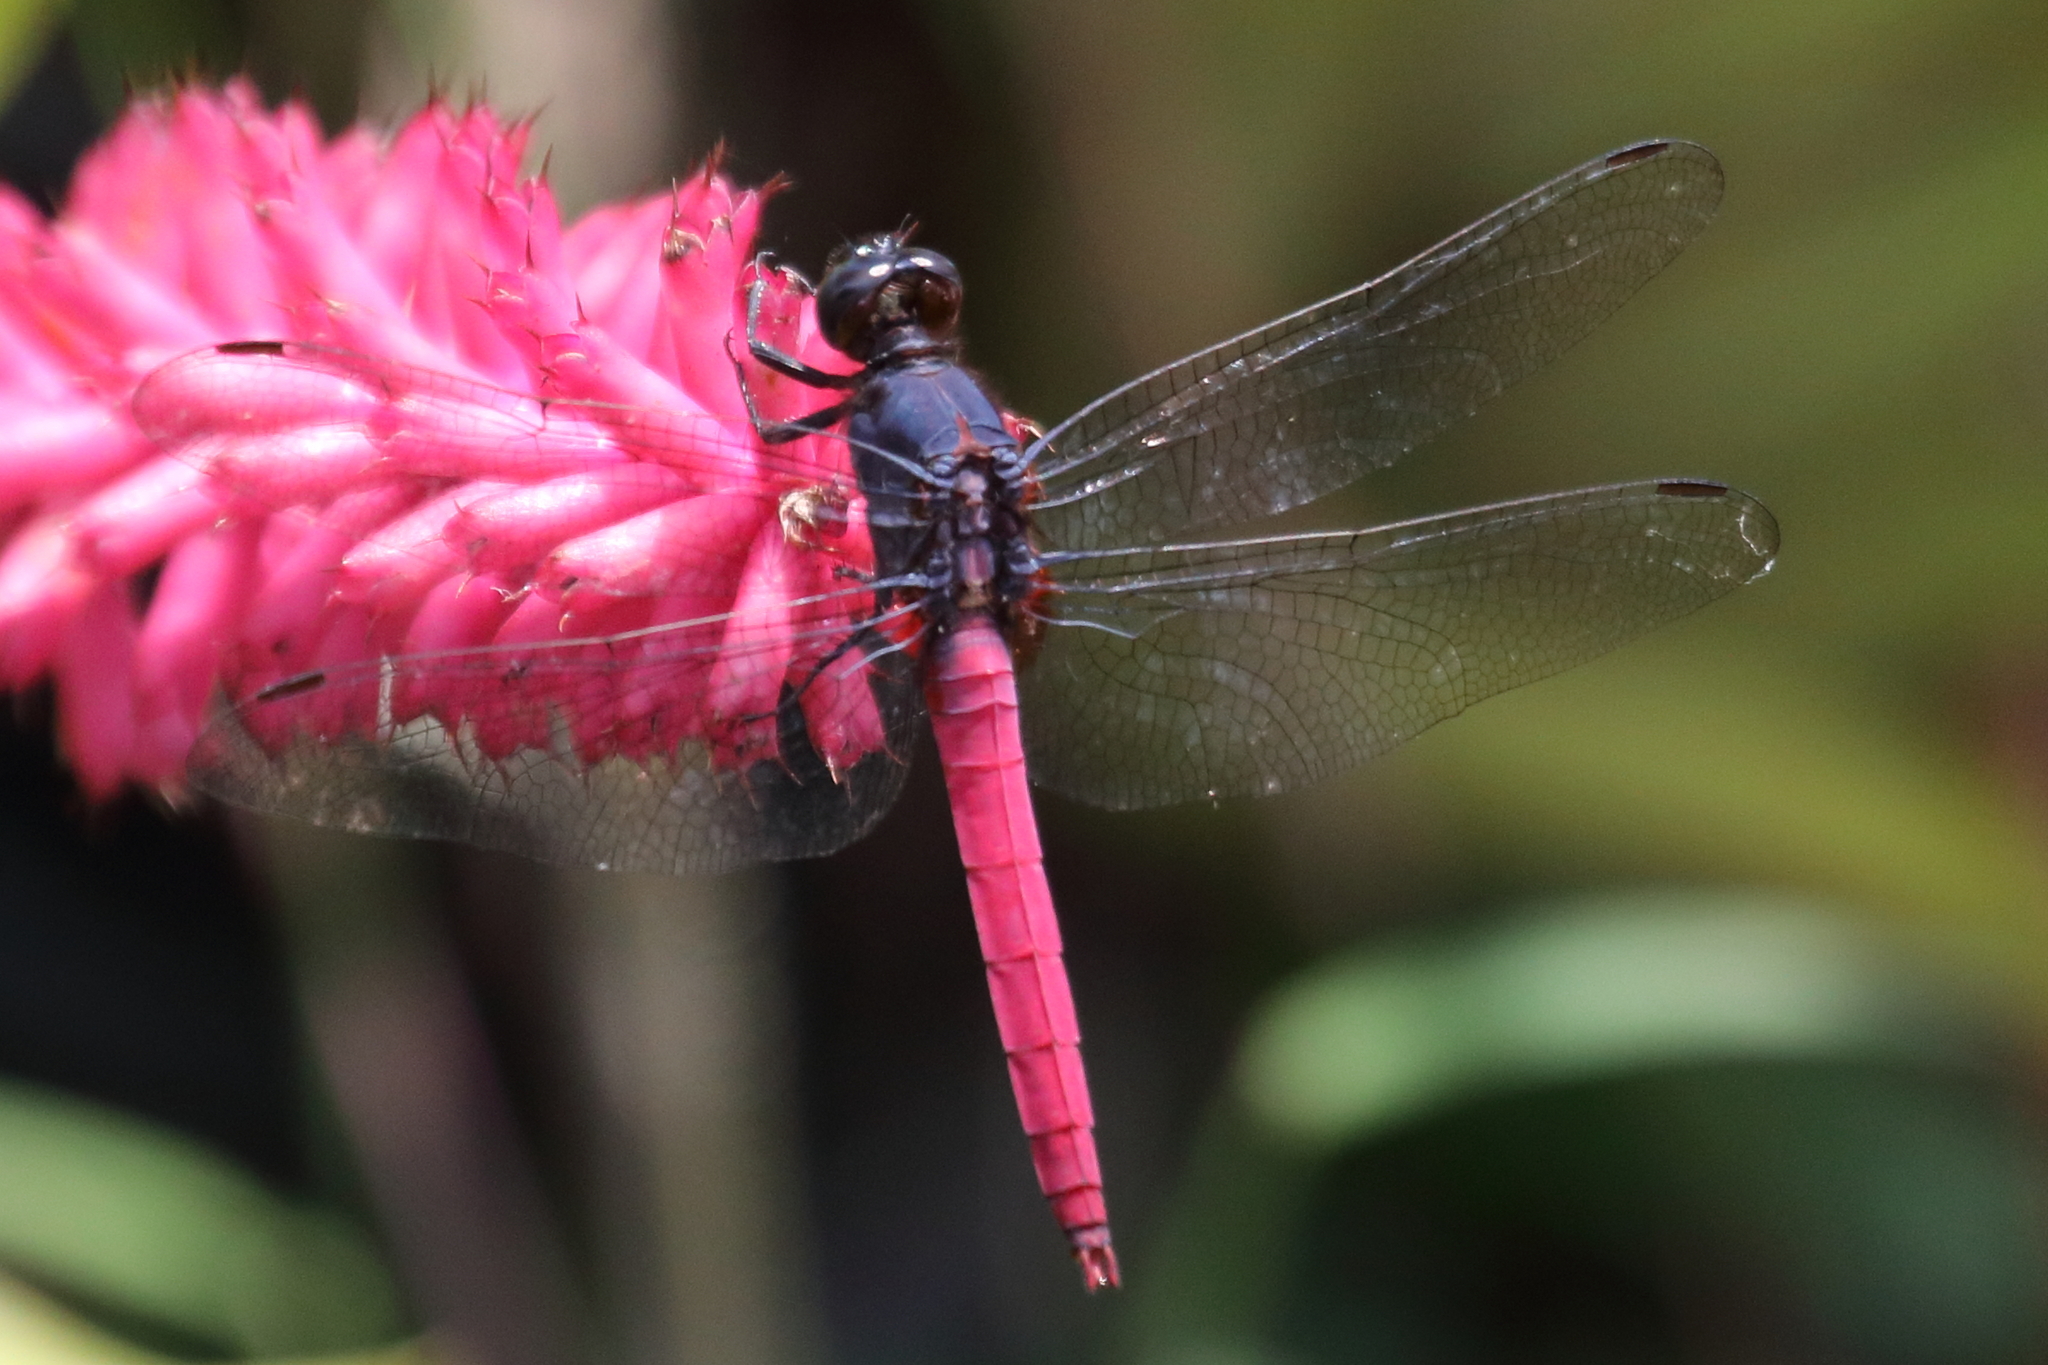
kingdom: Animalia
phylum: Arthropoda
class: Insecta
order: Odonata
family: Libellulidae
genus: Orthetrum
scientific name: Orthetrum pruinosum
